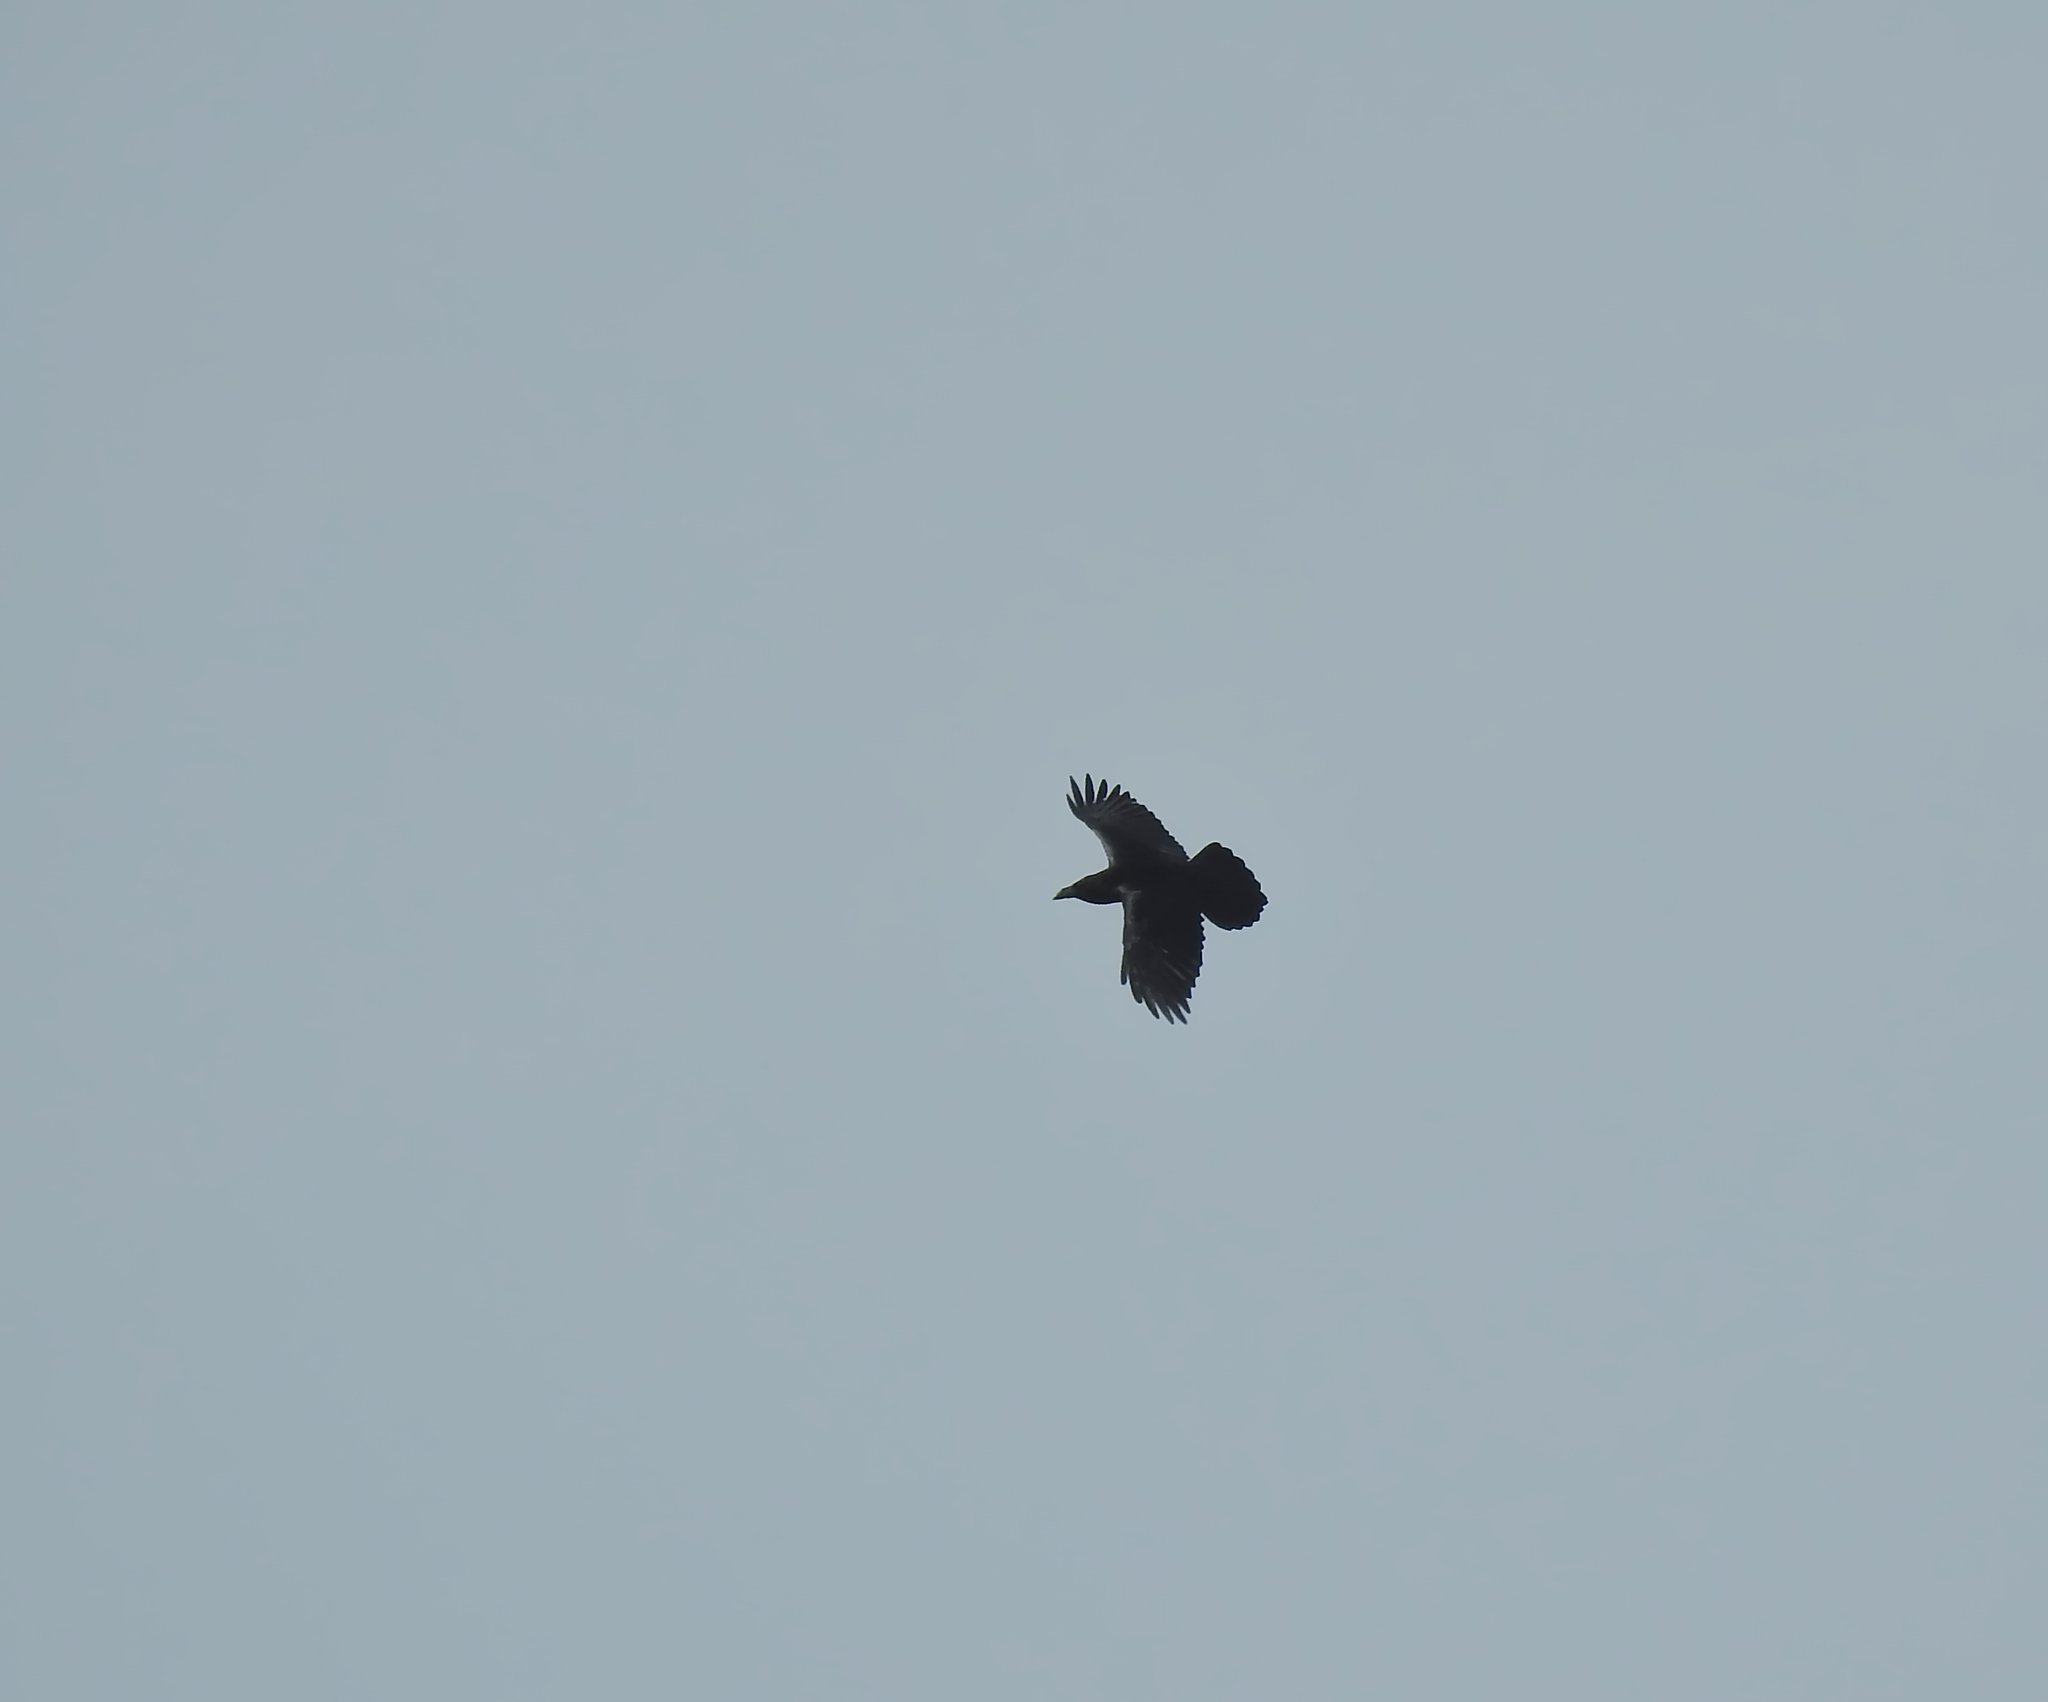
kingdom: Animalia
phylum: Chordata
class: Aves
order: Passeriformes
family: Corvidae
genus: Corvus
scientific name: Corvus corax
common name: Common raven
